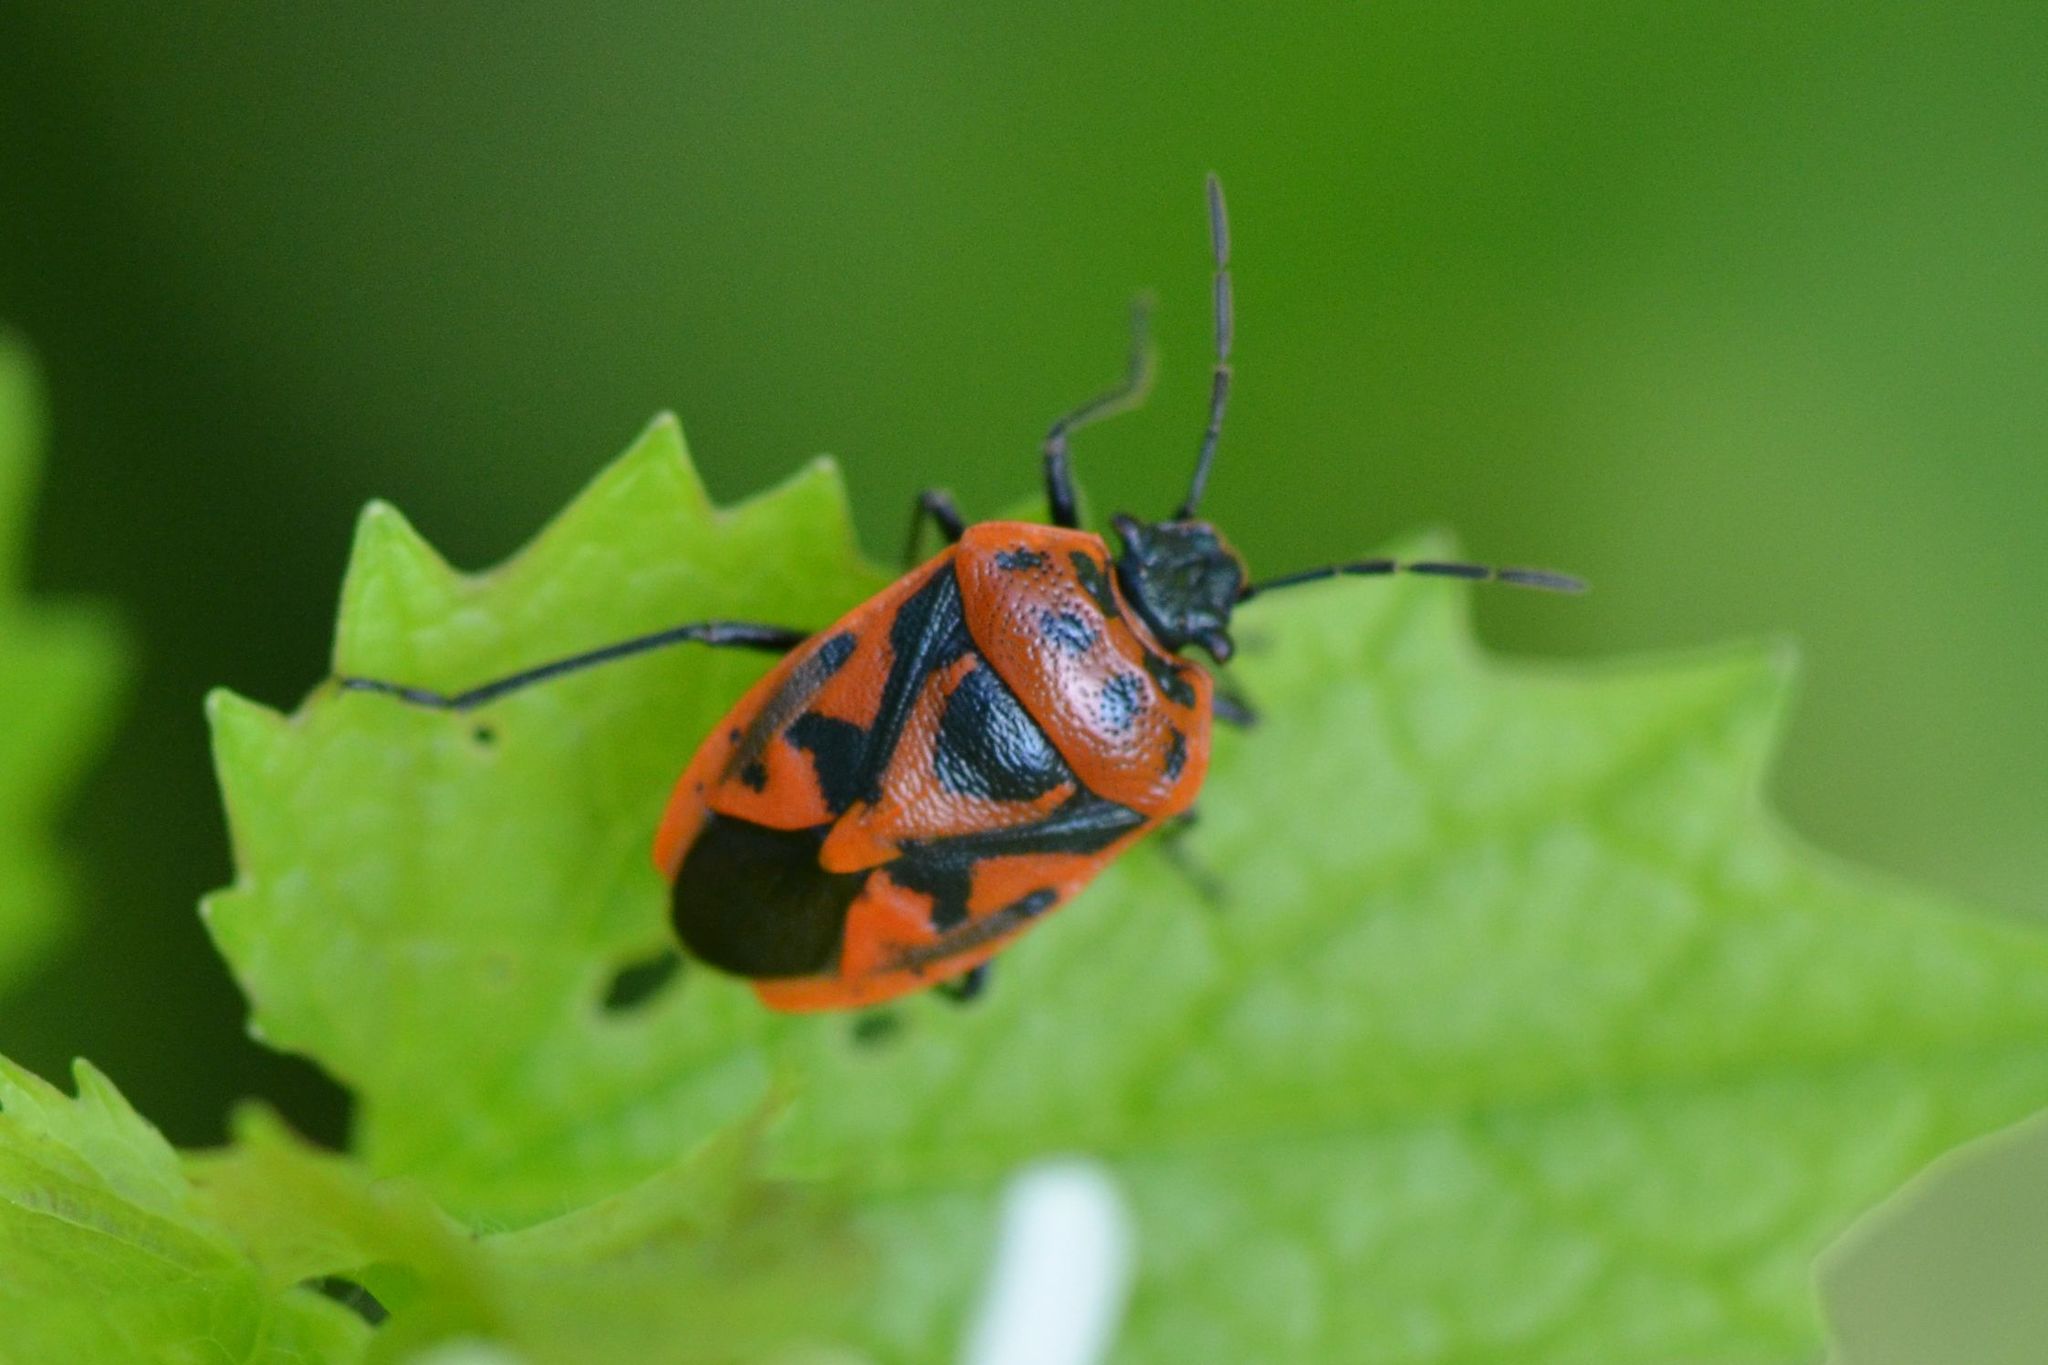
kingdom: Animalia
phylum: Arthropoda
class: Insecta
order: Hemiptera
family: Pentatomidae
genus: Eurydema
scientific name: Eurydema ornata
